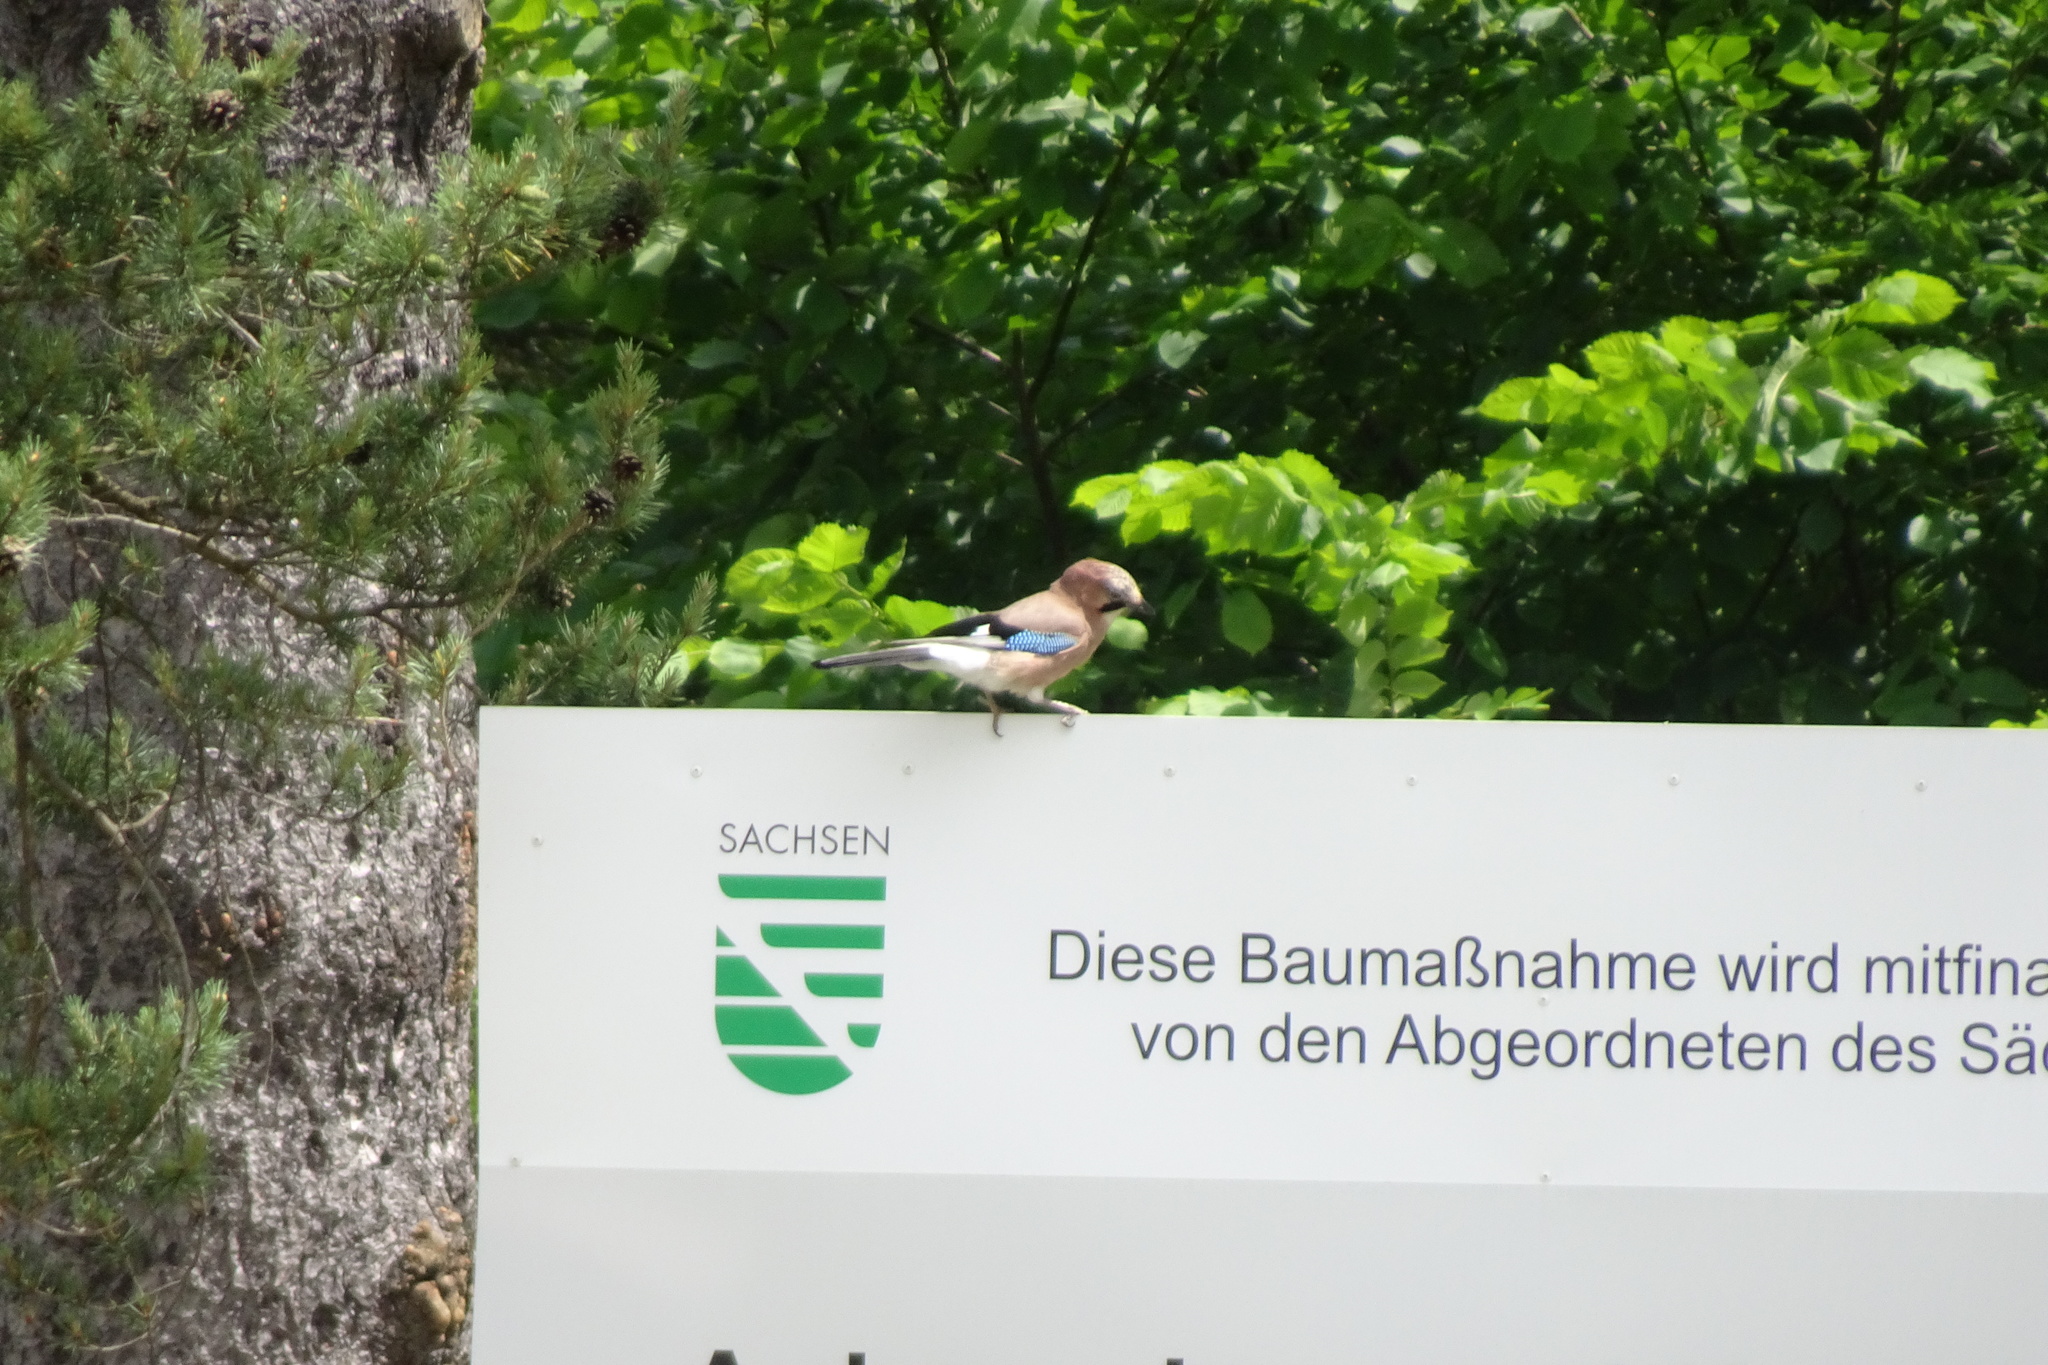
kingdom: Animalia
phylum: Chordata
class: Aves
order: Passeriformes
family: Corvidae
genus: Garrulus
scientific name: Garrulus glandarius
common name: Eurasian jay
